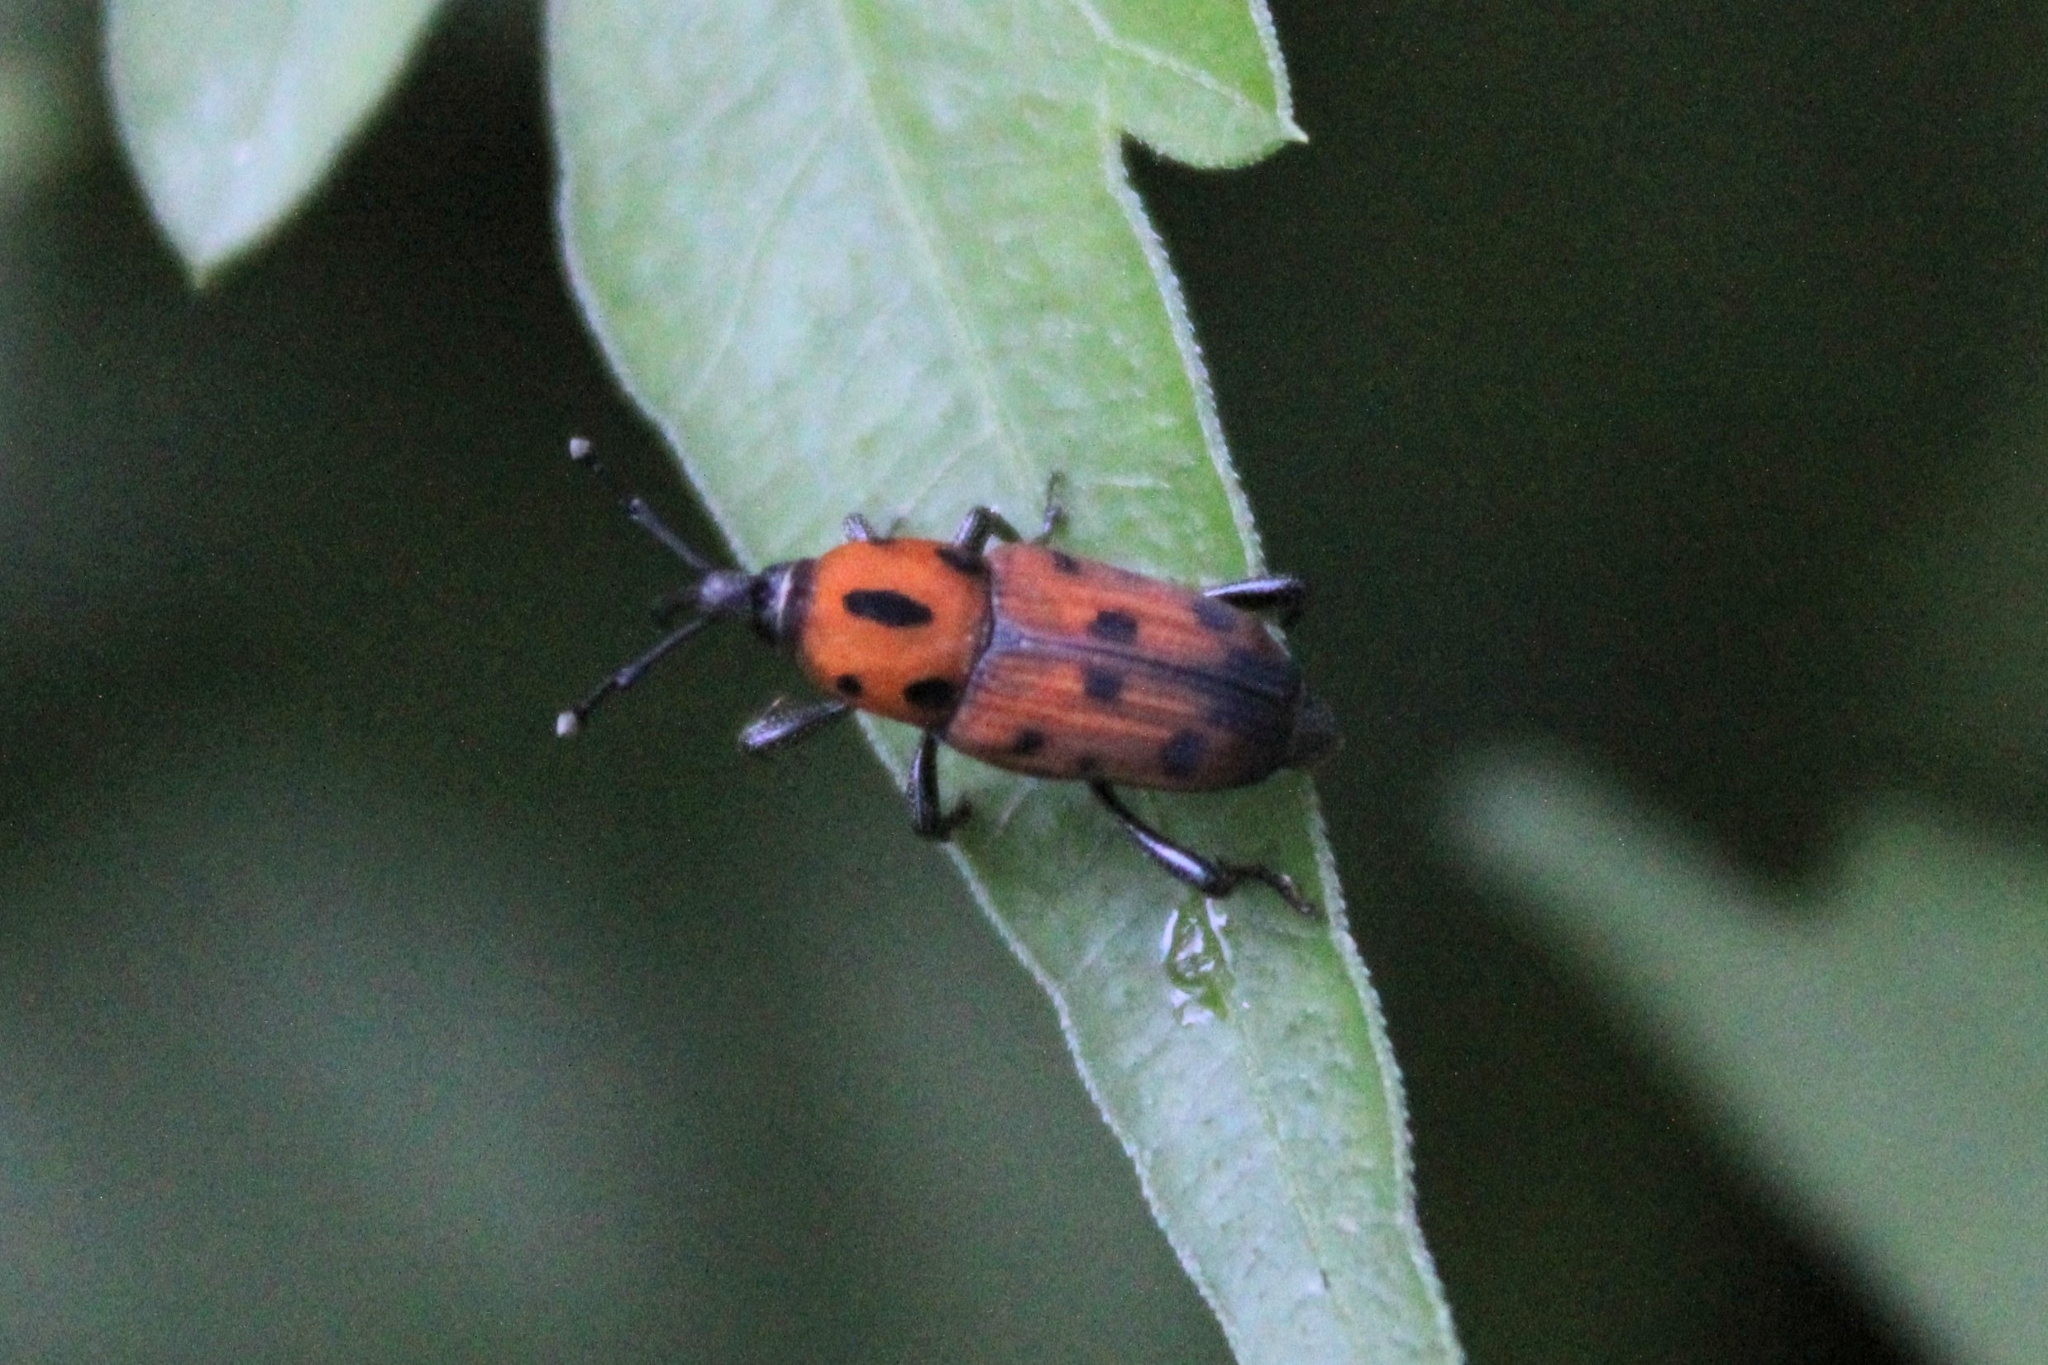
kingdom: Animalia
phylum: Arthropoda
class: Insecta
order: Coleoptera
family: Dryophthoridae
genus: Rhodobaenus
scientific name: Rhodobaenus quinquepunctatus
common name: Cocklebur weevil
